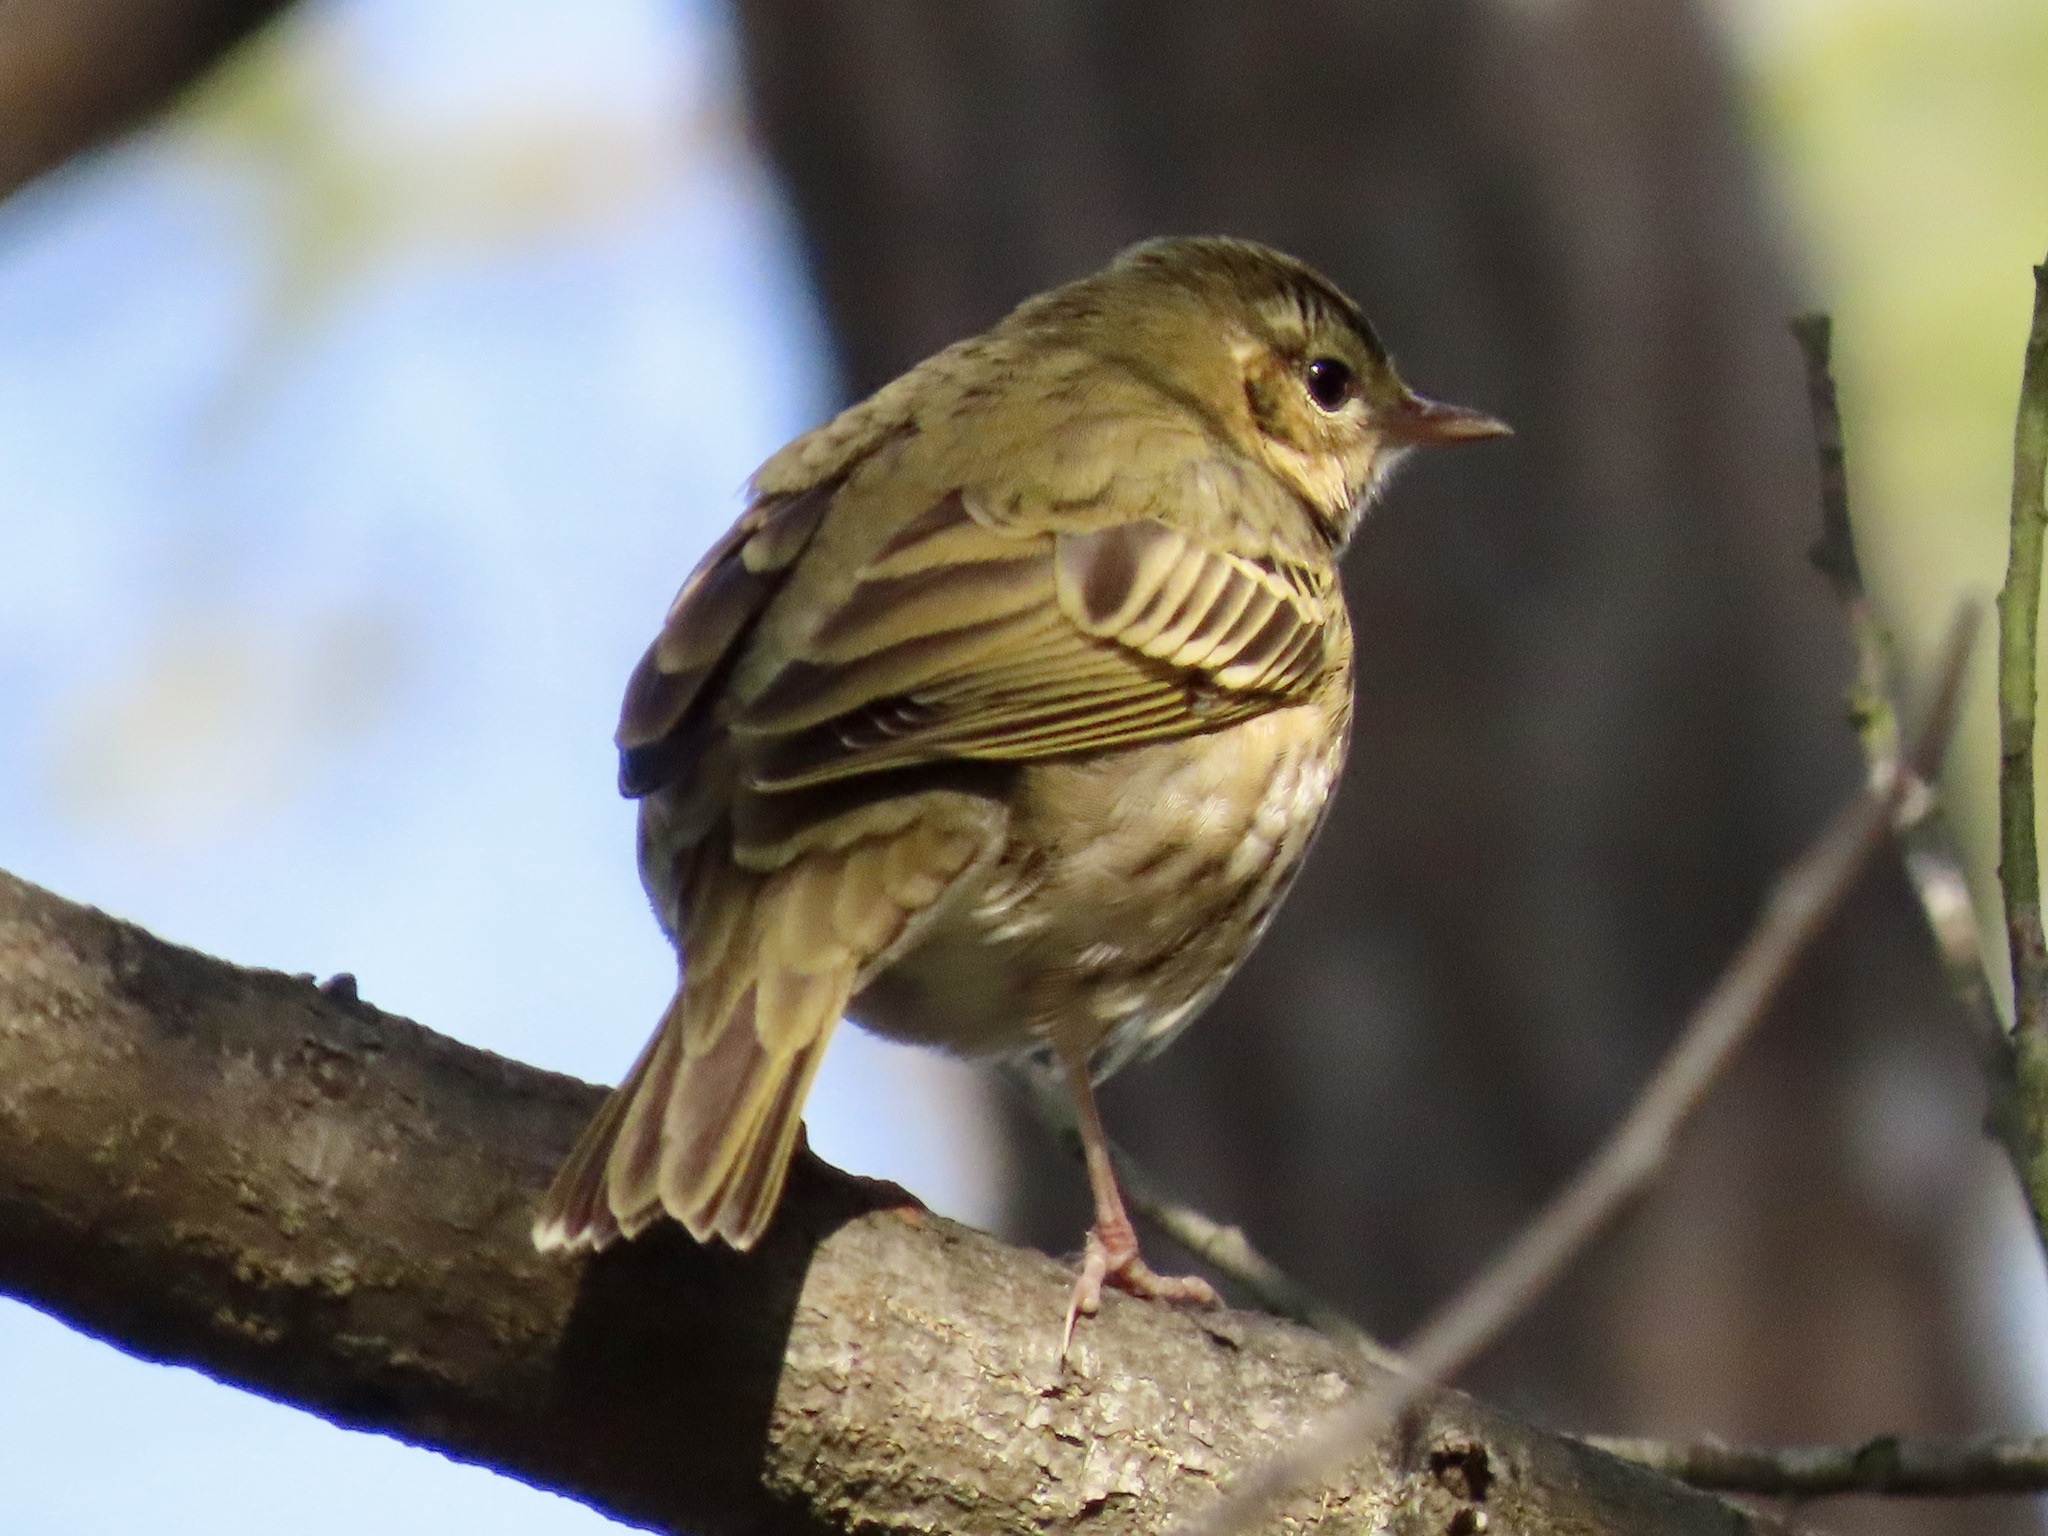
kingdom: Animalia
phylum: Chordata
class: Aves
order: Passeriformes
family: Motacillidae
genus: Anthus
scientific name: Anthus hodgsoni
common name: Olive-backed pipit
